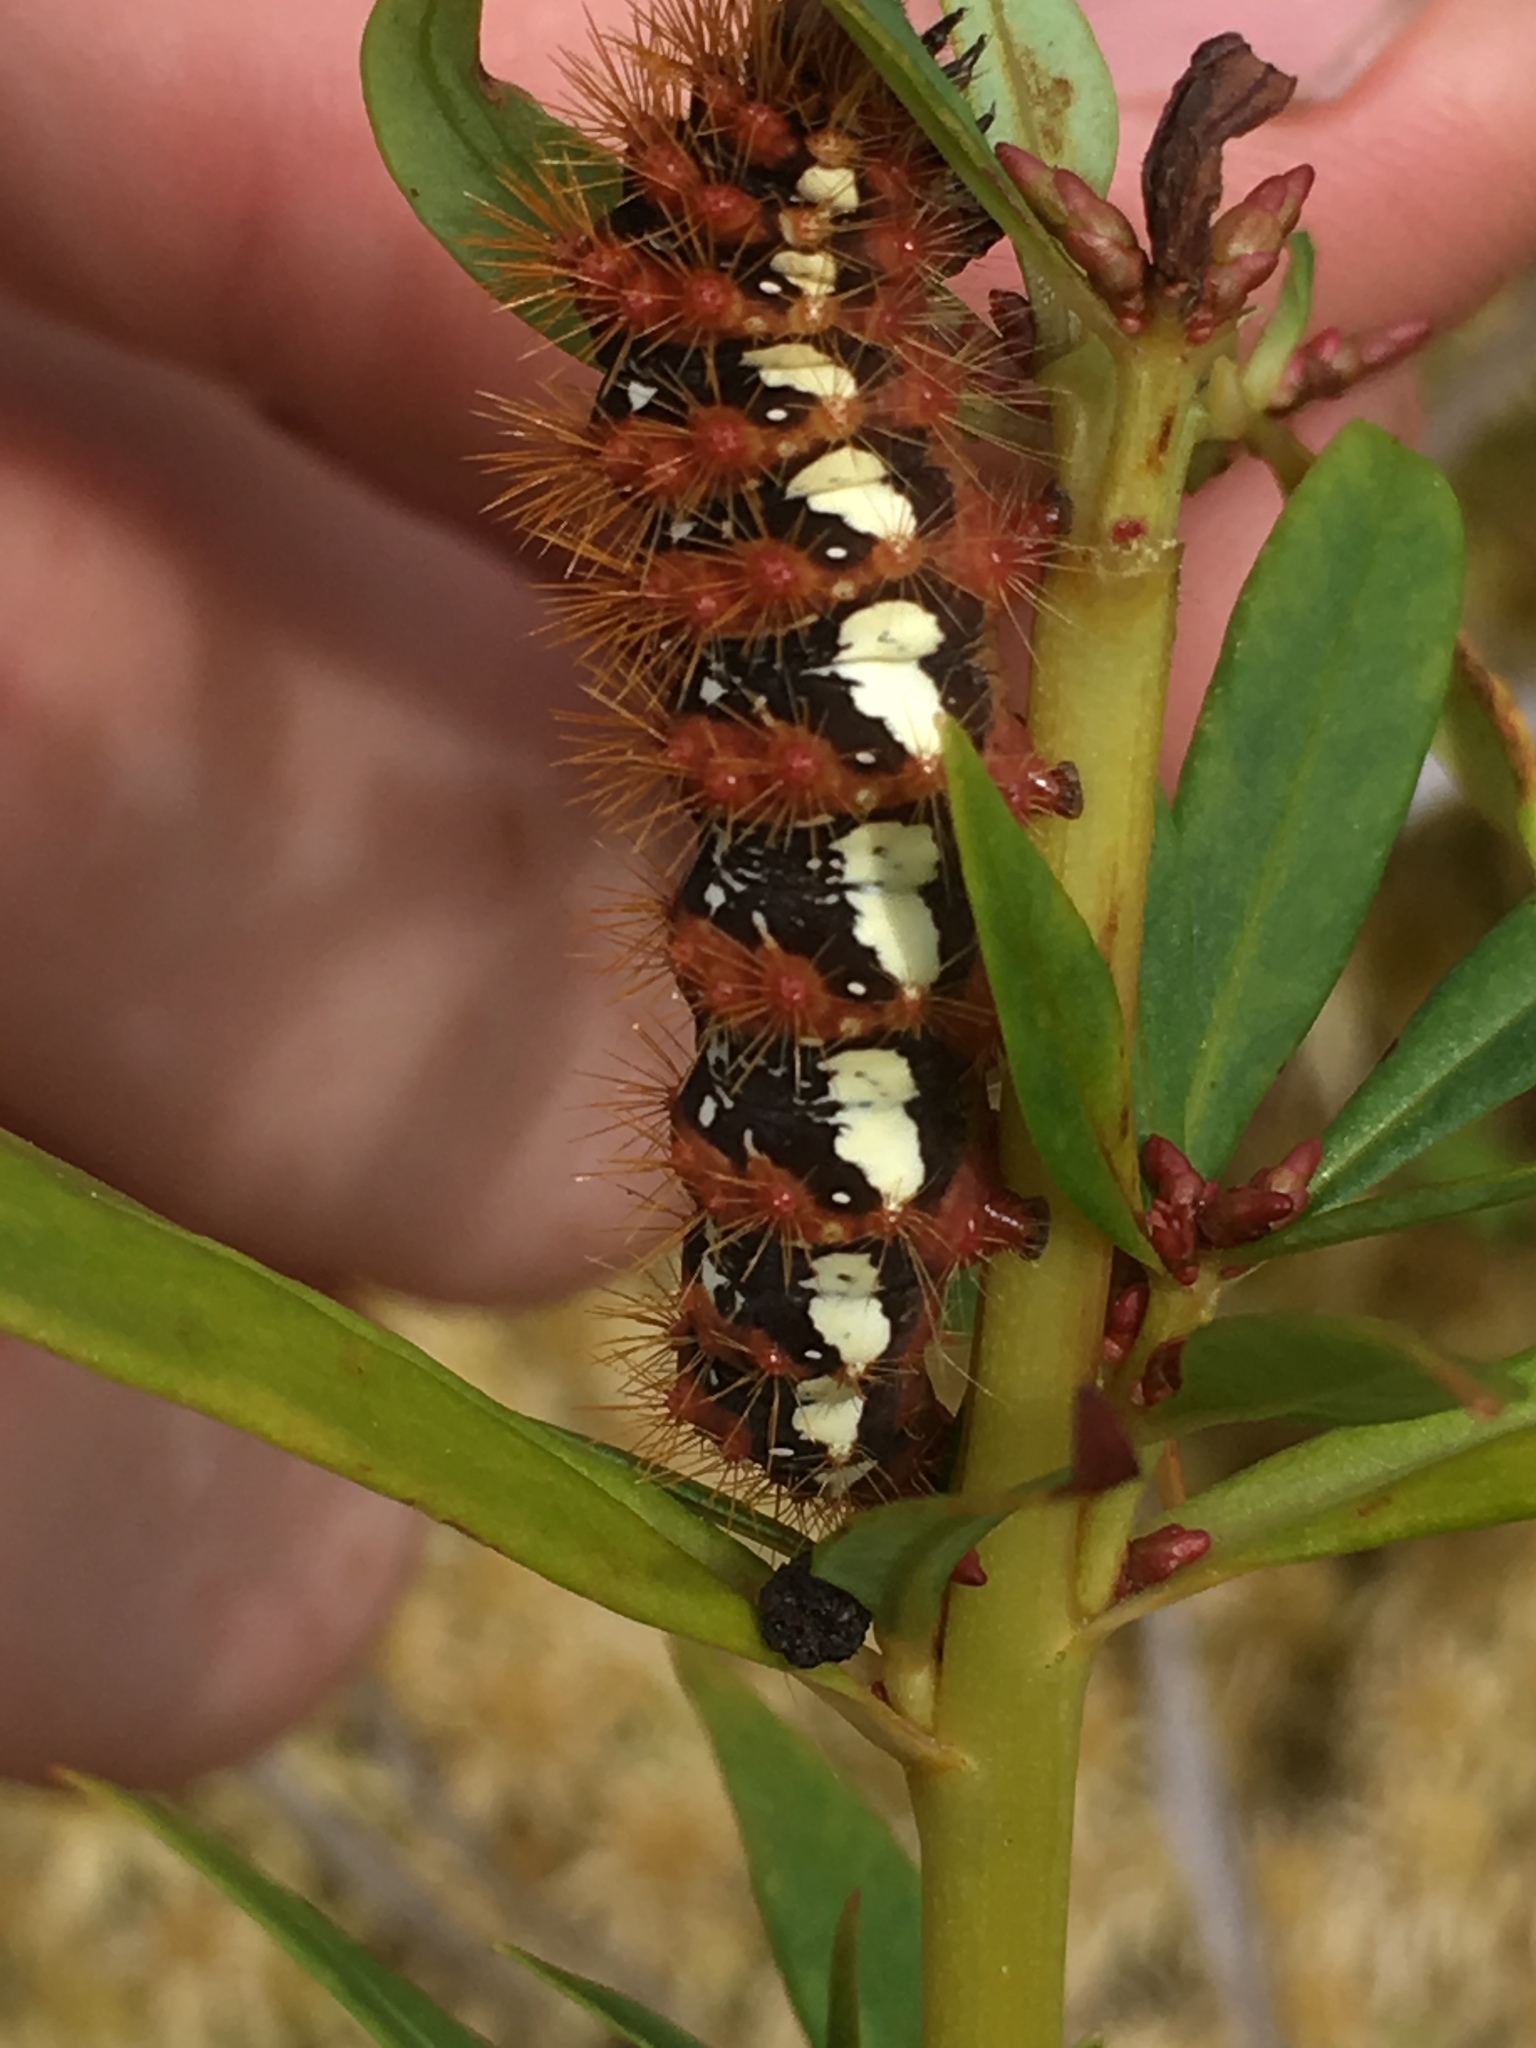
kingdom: Animalia
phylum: Arthropoda
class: Insecta
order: Lepidoptera
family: Noctuidae
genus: Acronicta
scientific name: Acronicta oblinita
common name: Smeared dagger
